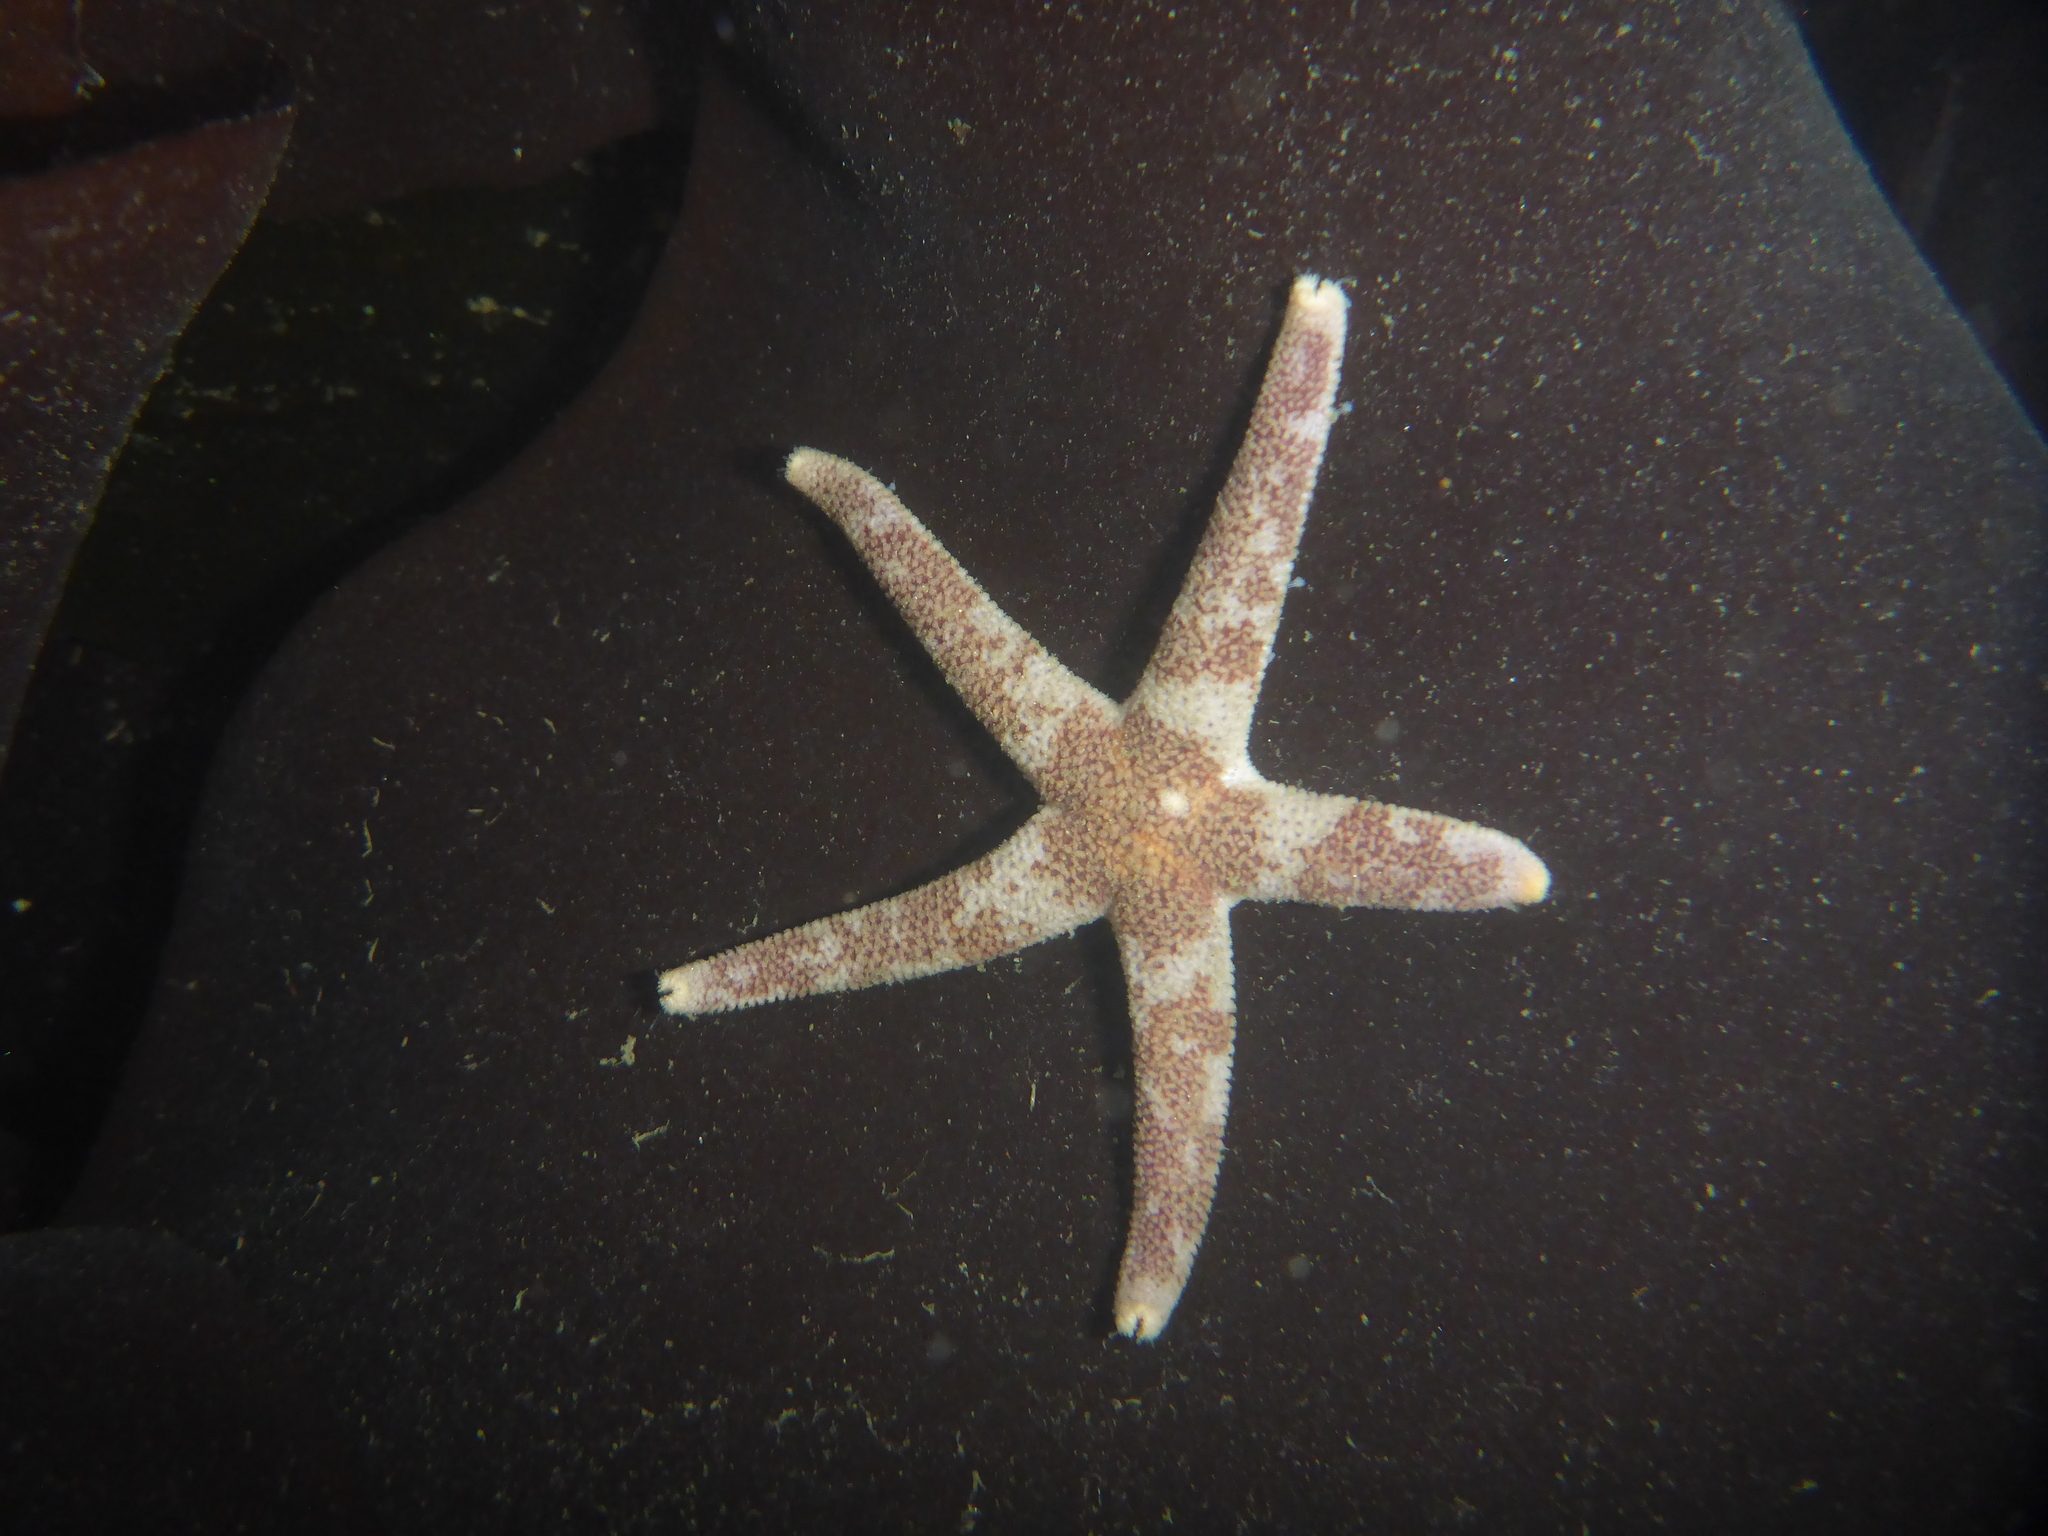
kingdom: Animalia
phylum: Echinodermata
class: Asteroidea
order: Spinulosida
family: Echinasteridae
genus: Henricia
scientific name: Henricia pumila
